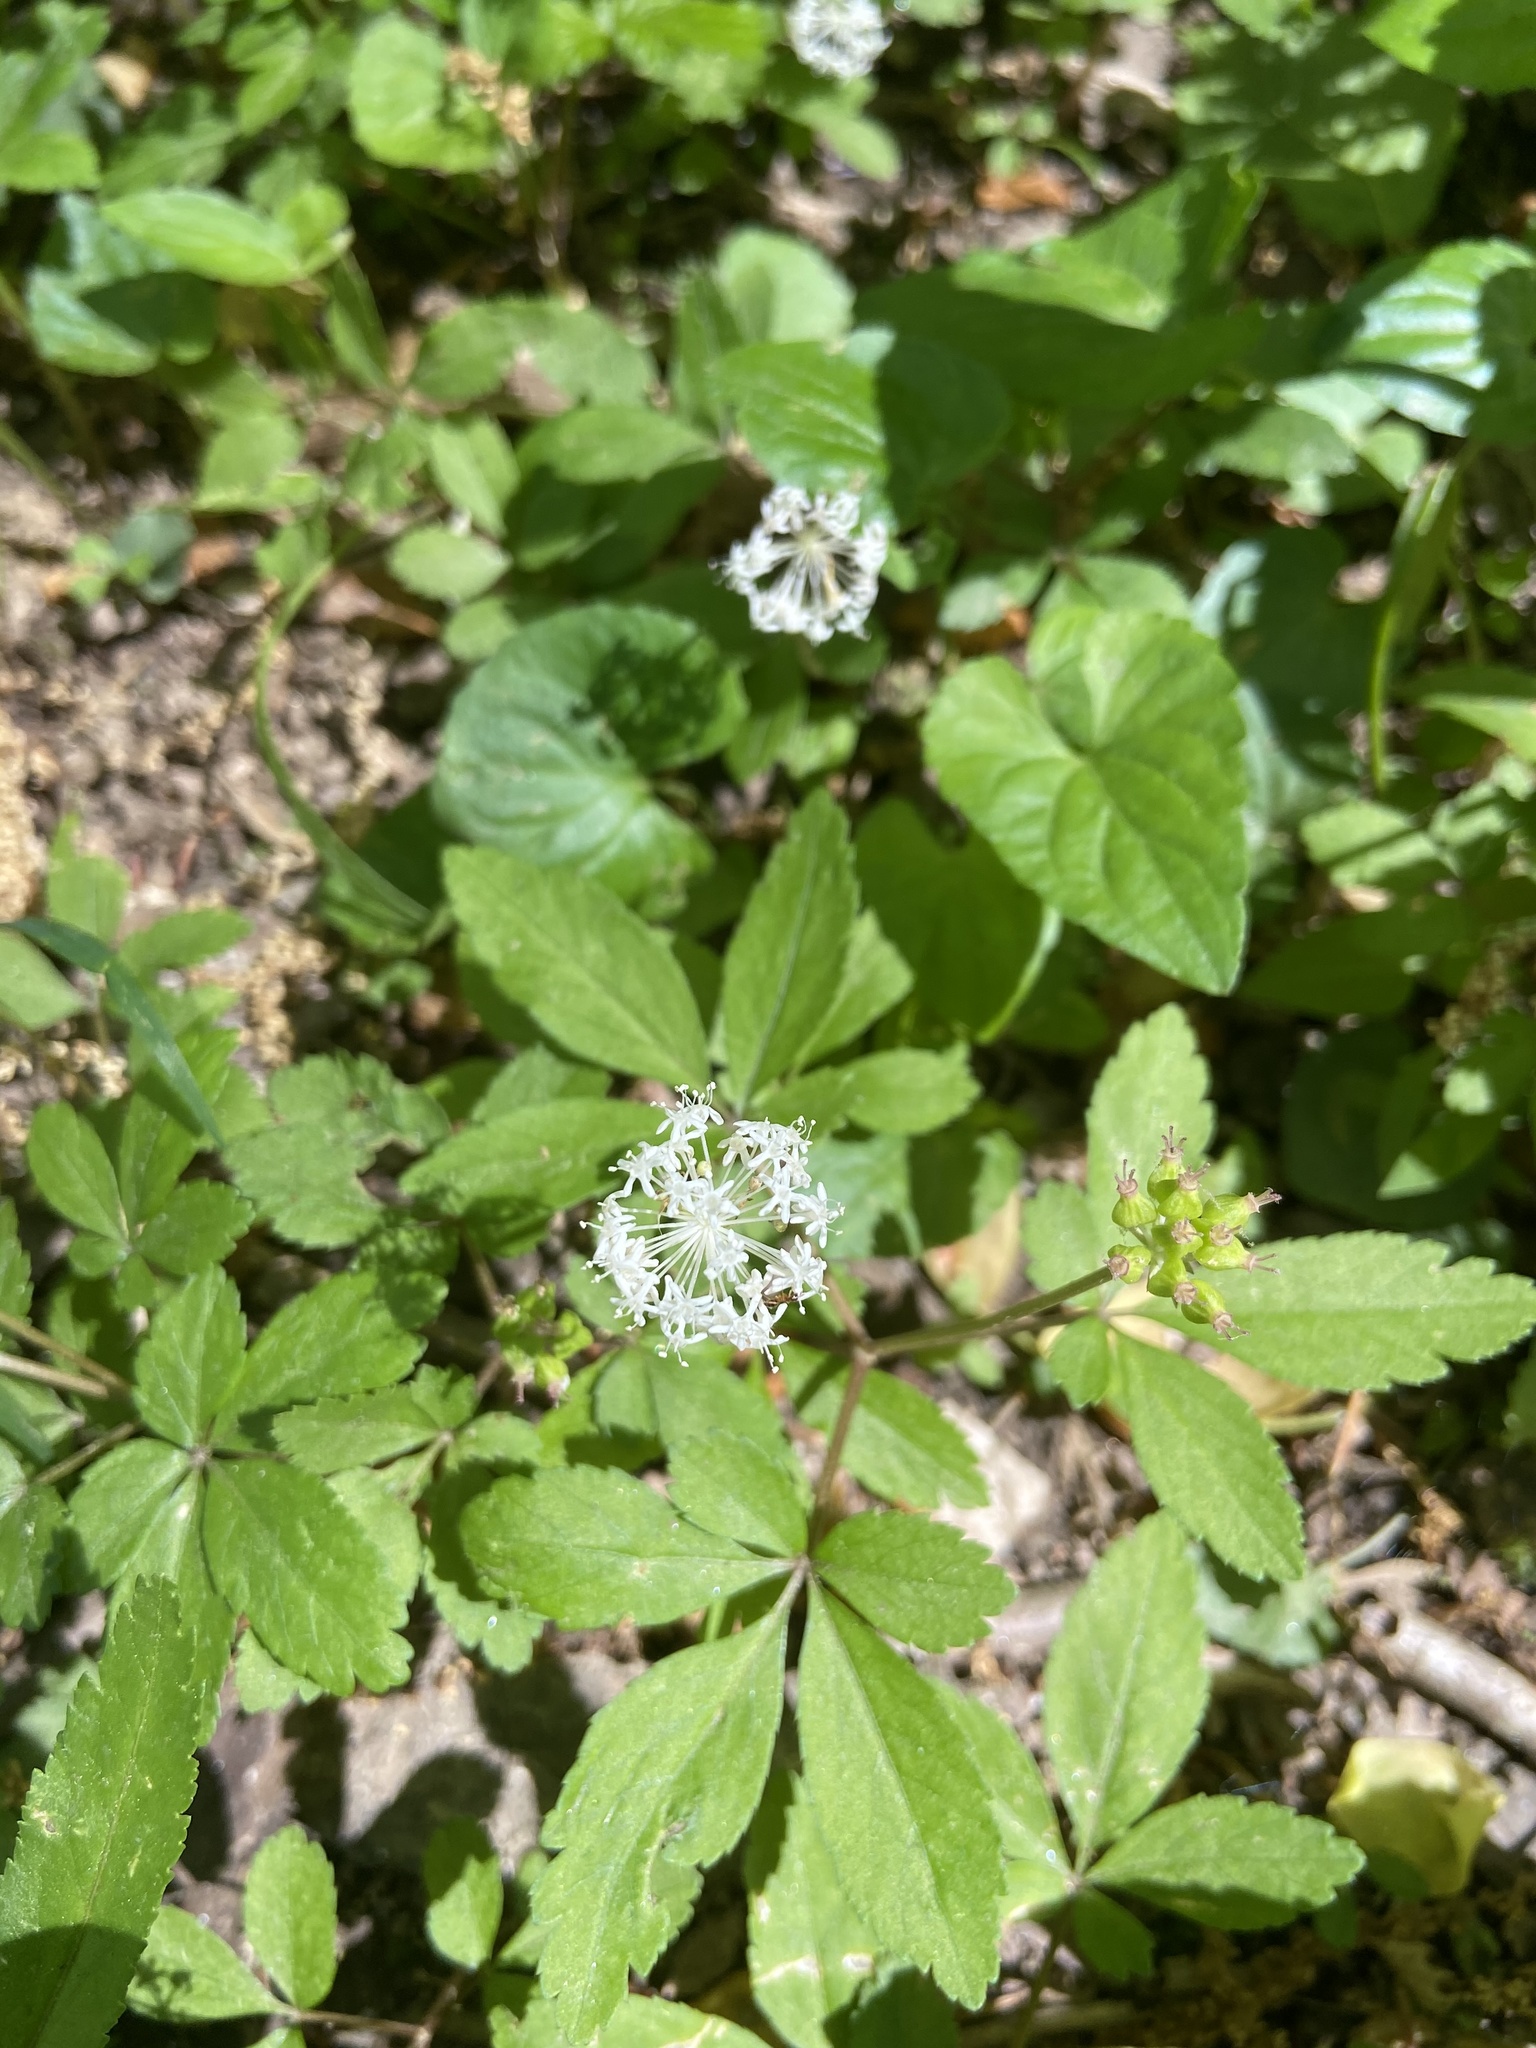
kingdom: Plantae
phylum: Tracheophyta
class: Magnoliopsida
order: Apiales
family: Araliaceae
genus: Panax
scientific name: Panax trifolius
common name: Dwarf ginseng
